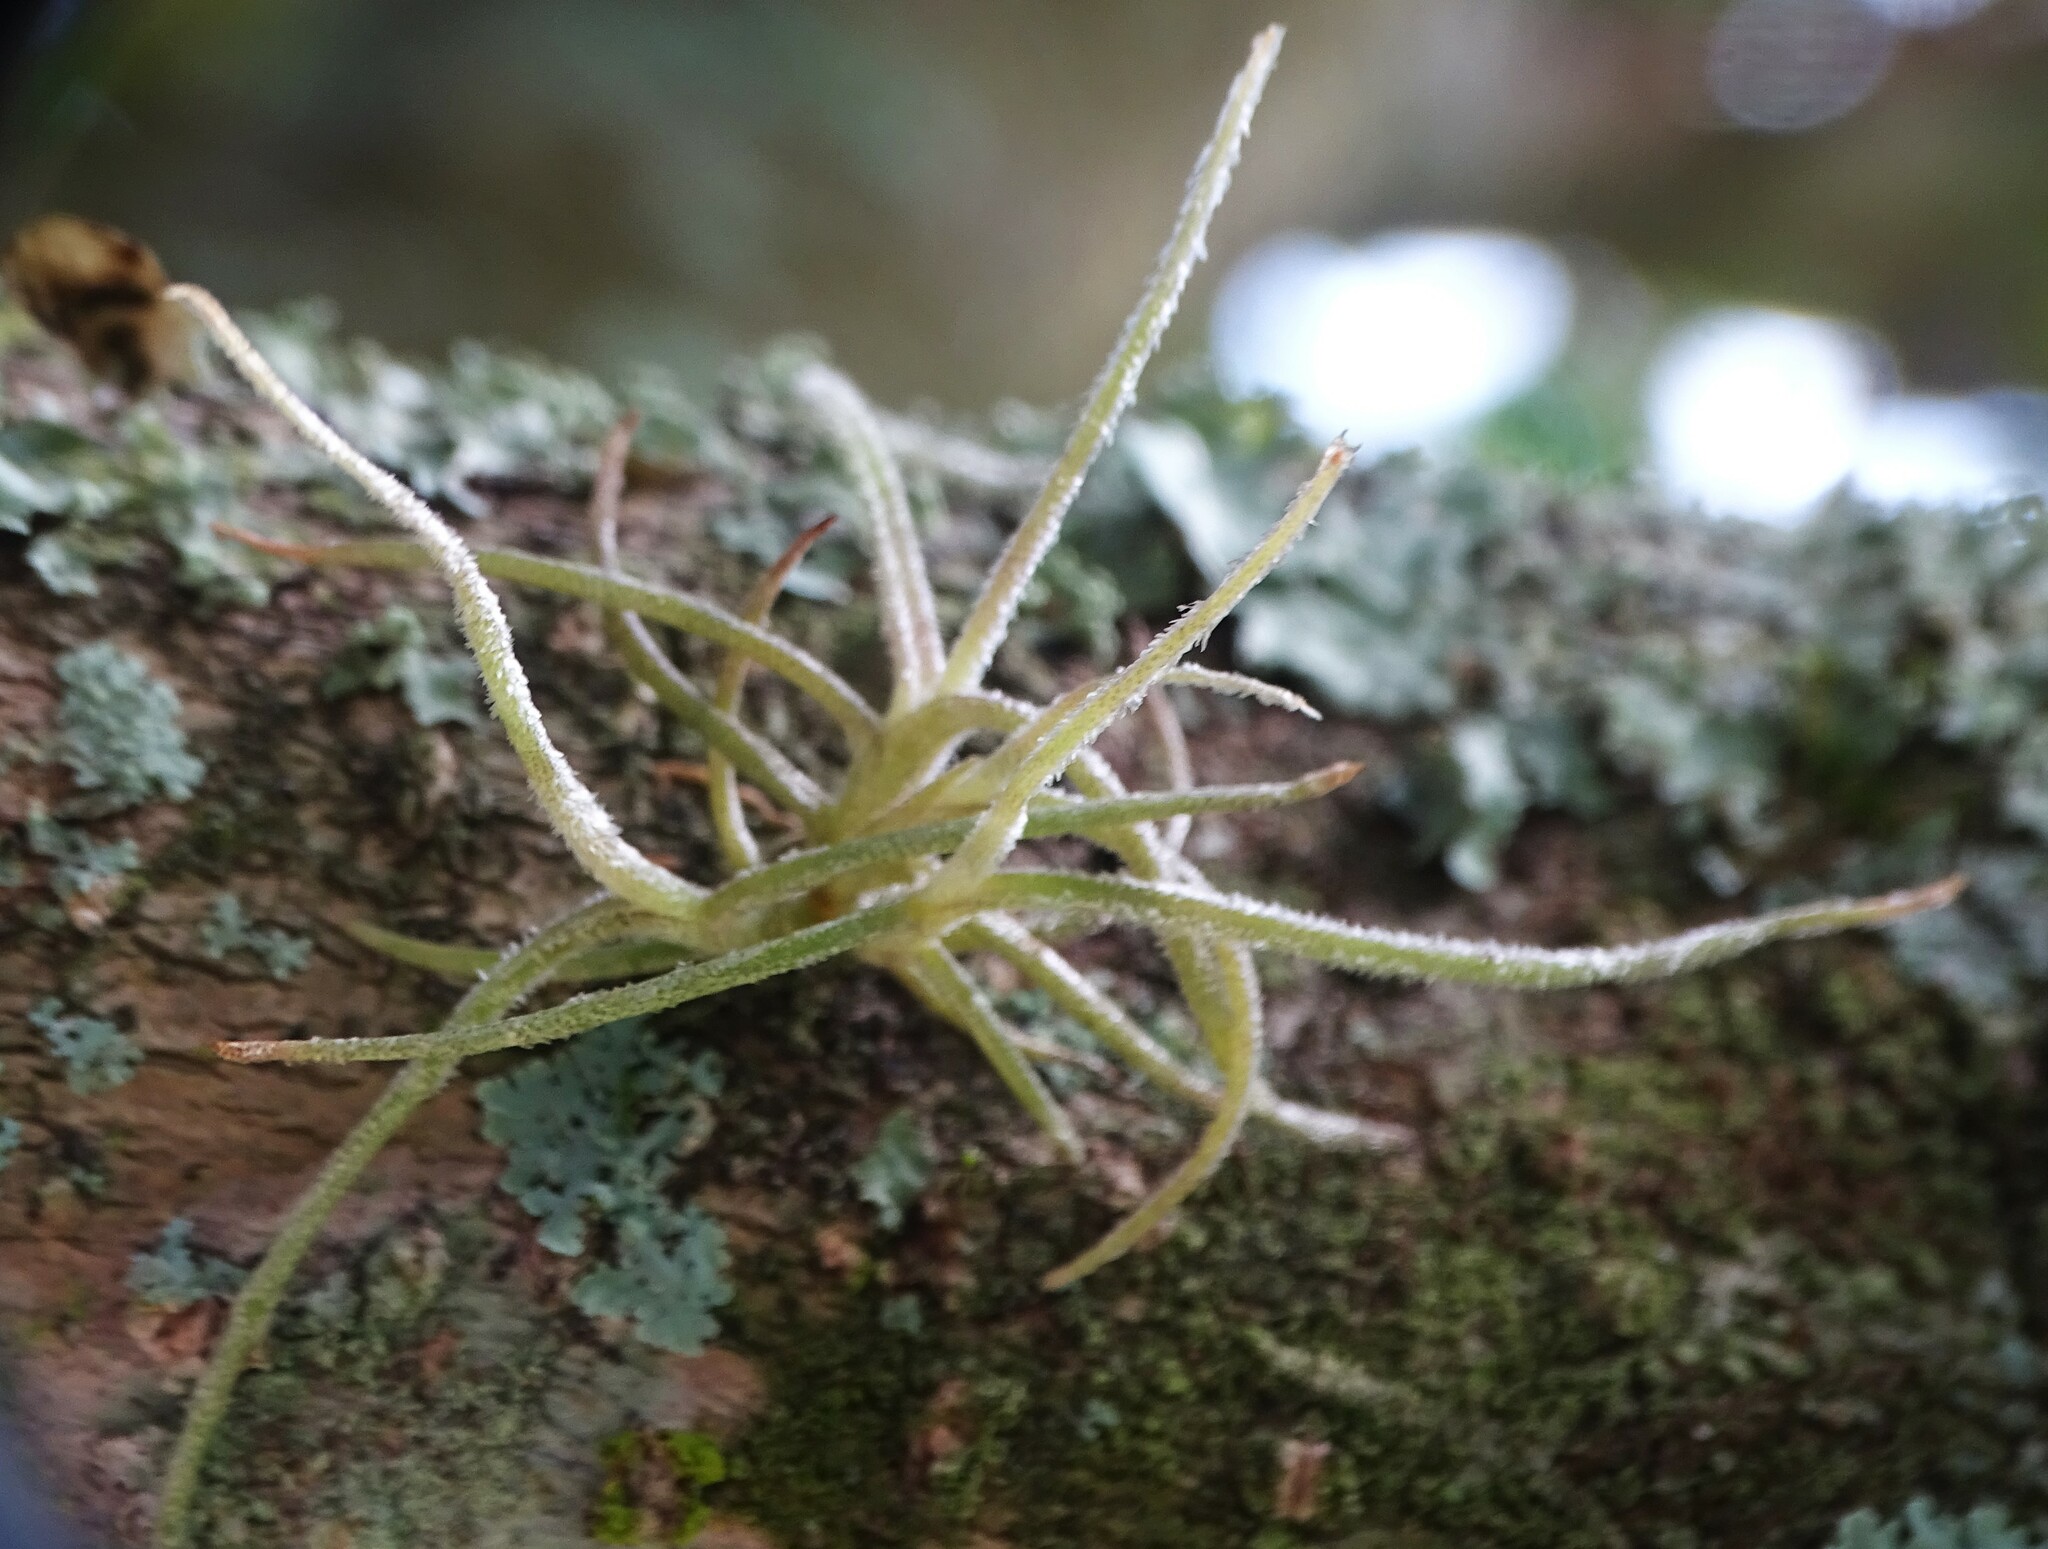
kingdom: Plantae
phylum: Tracheophyta
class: Liliopsida
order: Poales
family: Bromeliaceae
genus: Tillandsia
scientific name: Tillandsia recurvata
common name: Small ballmoss
